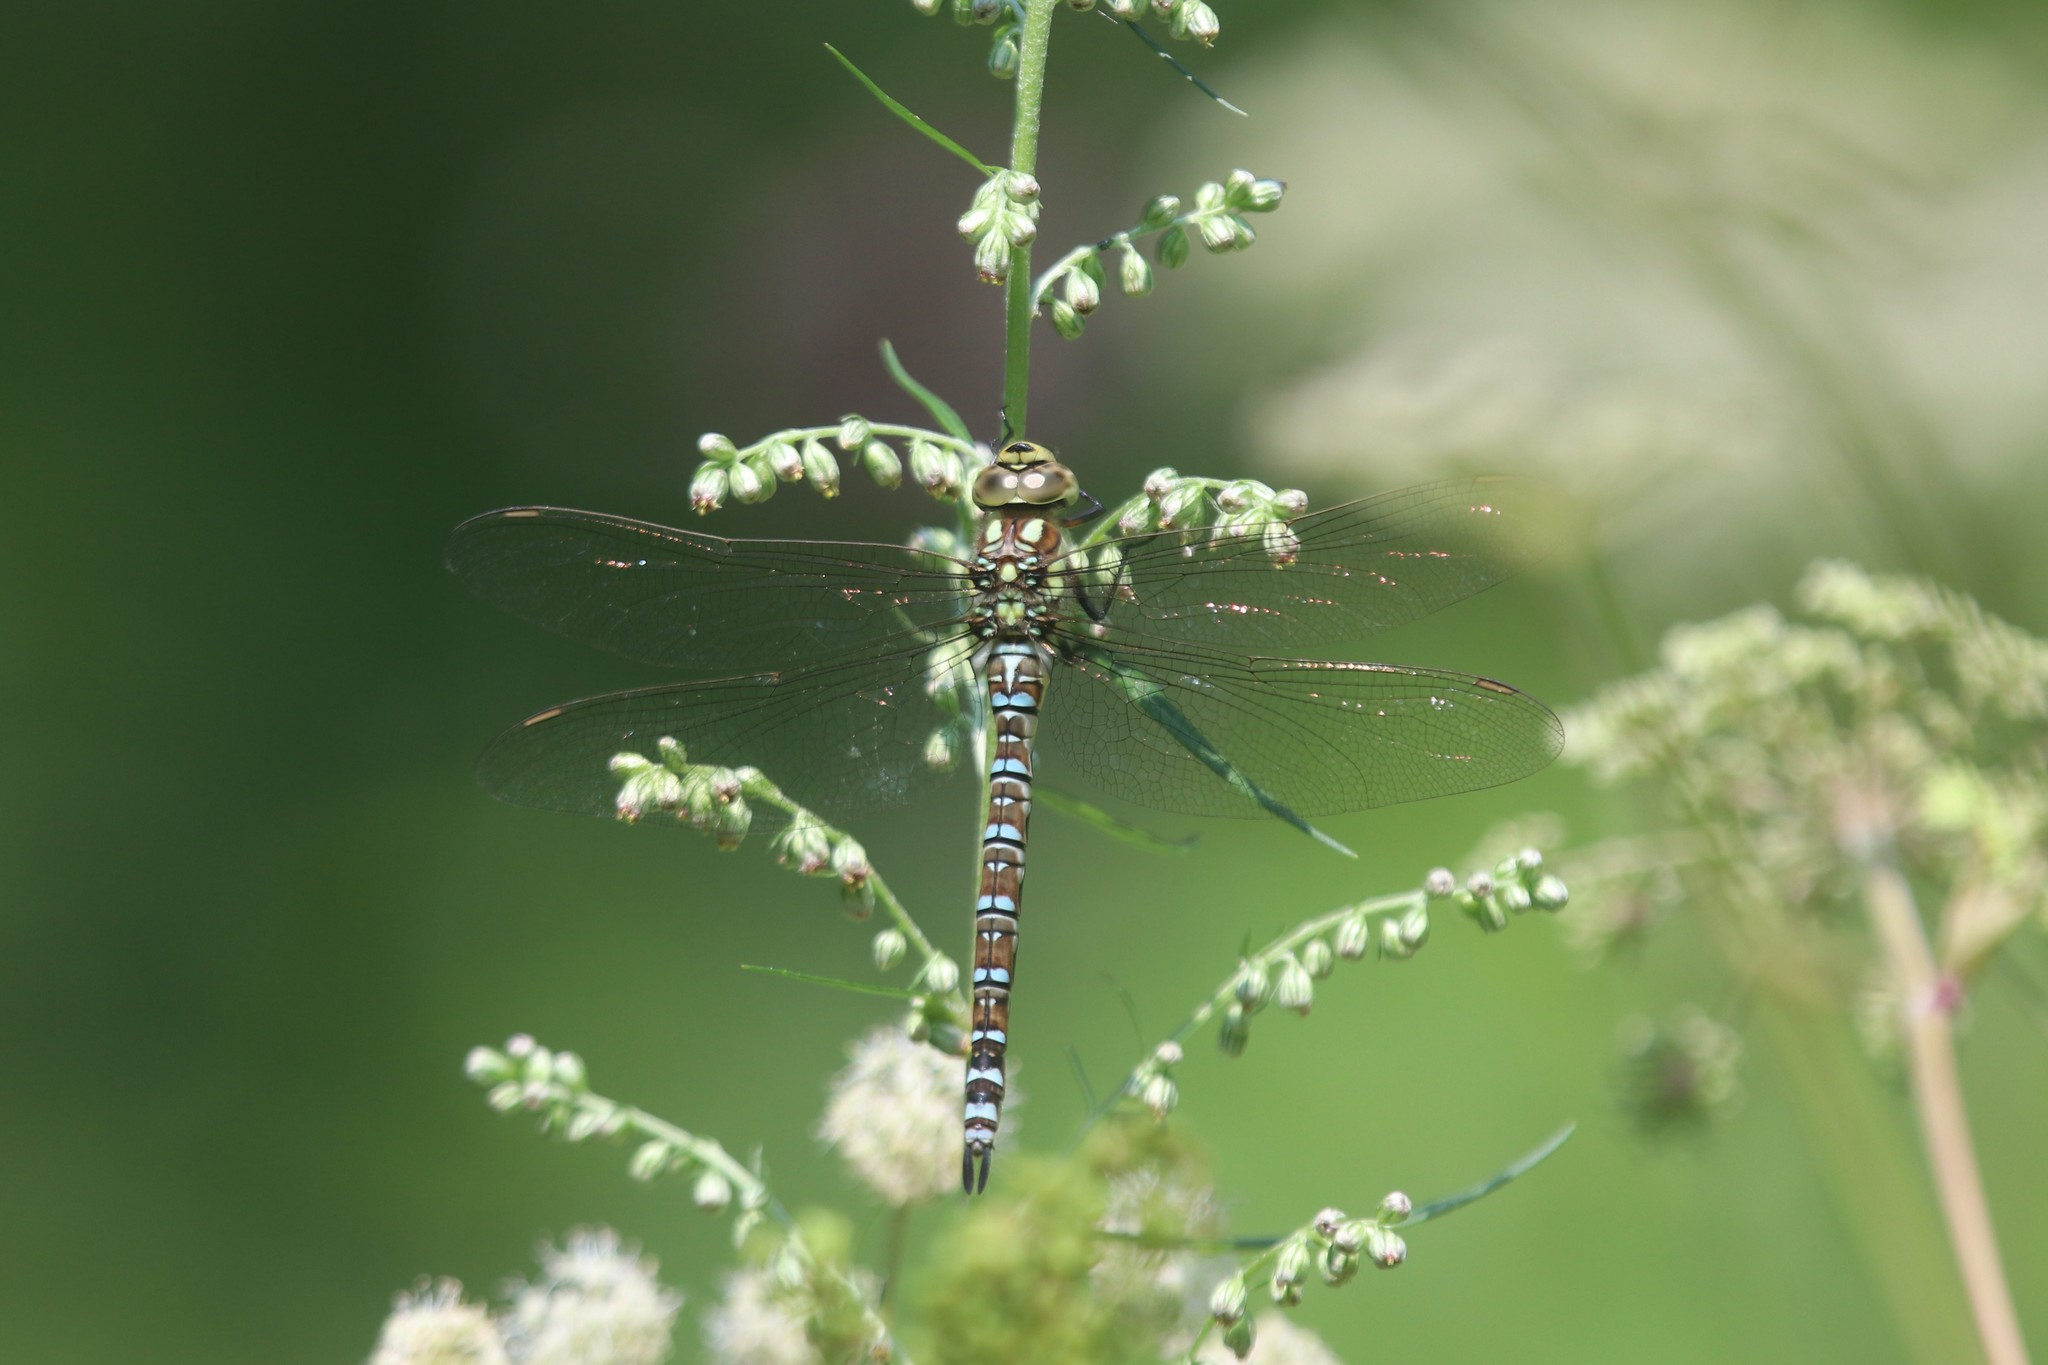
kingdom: Animalia
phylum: Arthropoda
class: Insecta
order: Odonata
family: Aeshnidae
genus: Aeshna
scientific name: Aeshna cyanea
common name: Southern hawker
